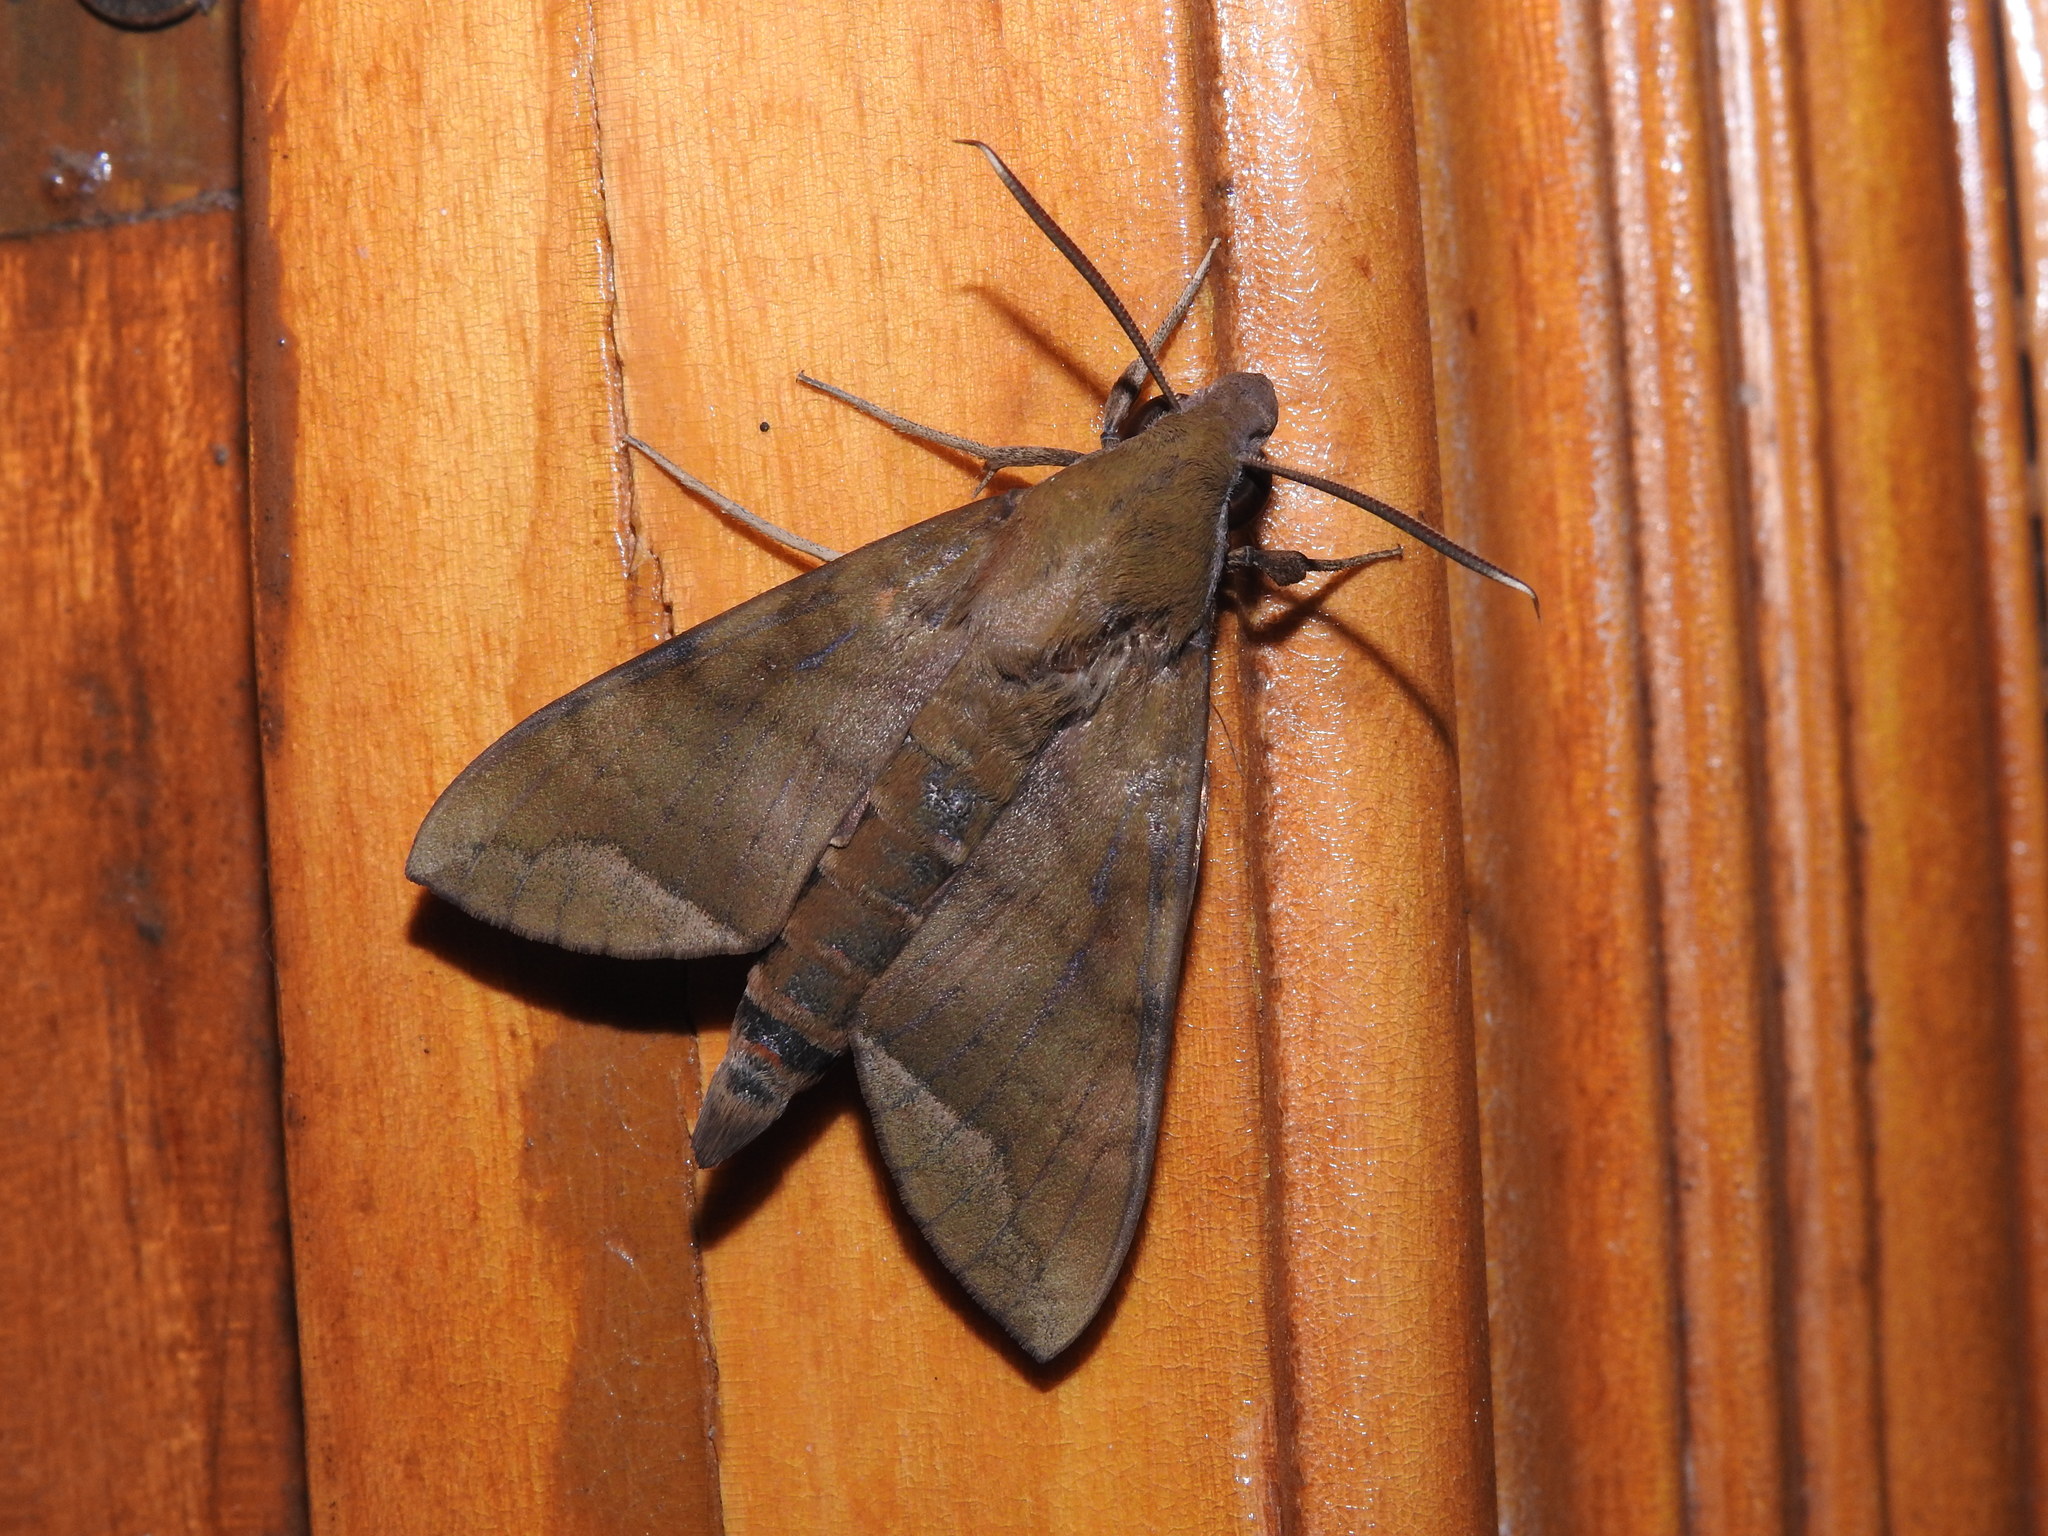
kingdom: Animalia
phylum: Arthropoda
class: Insecta
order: Lepidoptera
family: Sphingidae
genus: Nephele
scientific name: Nephele hespera
